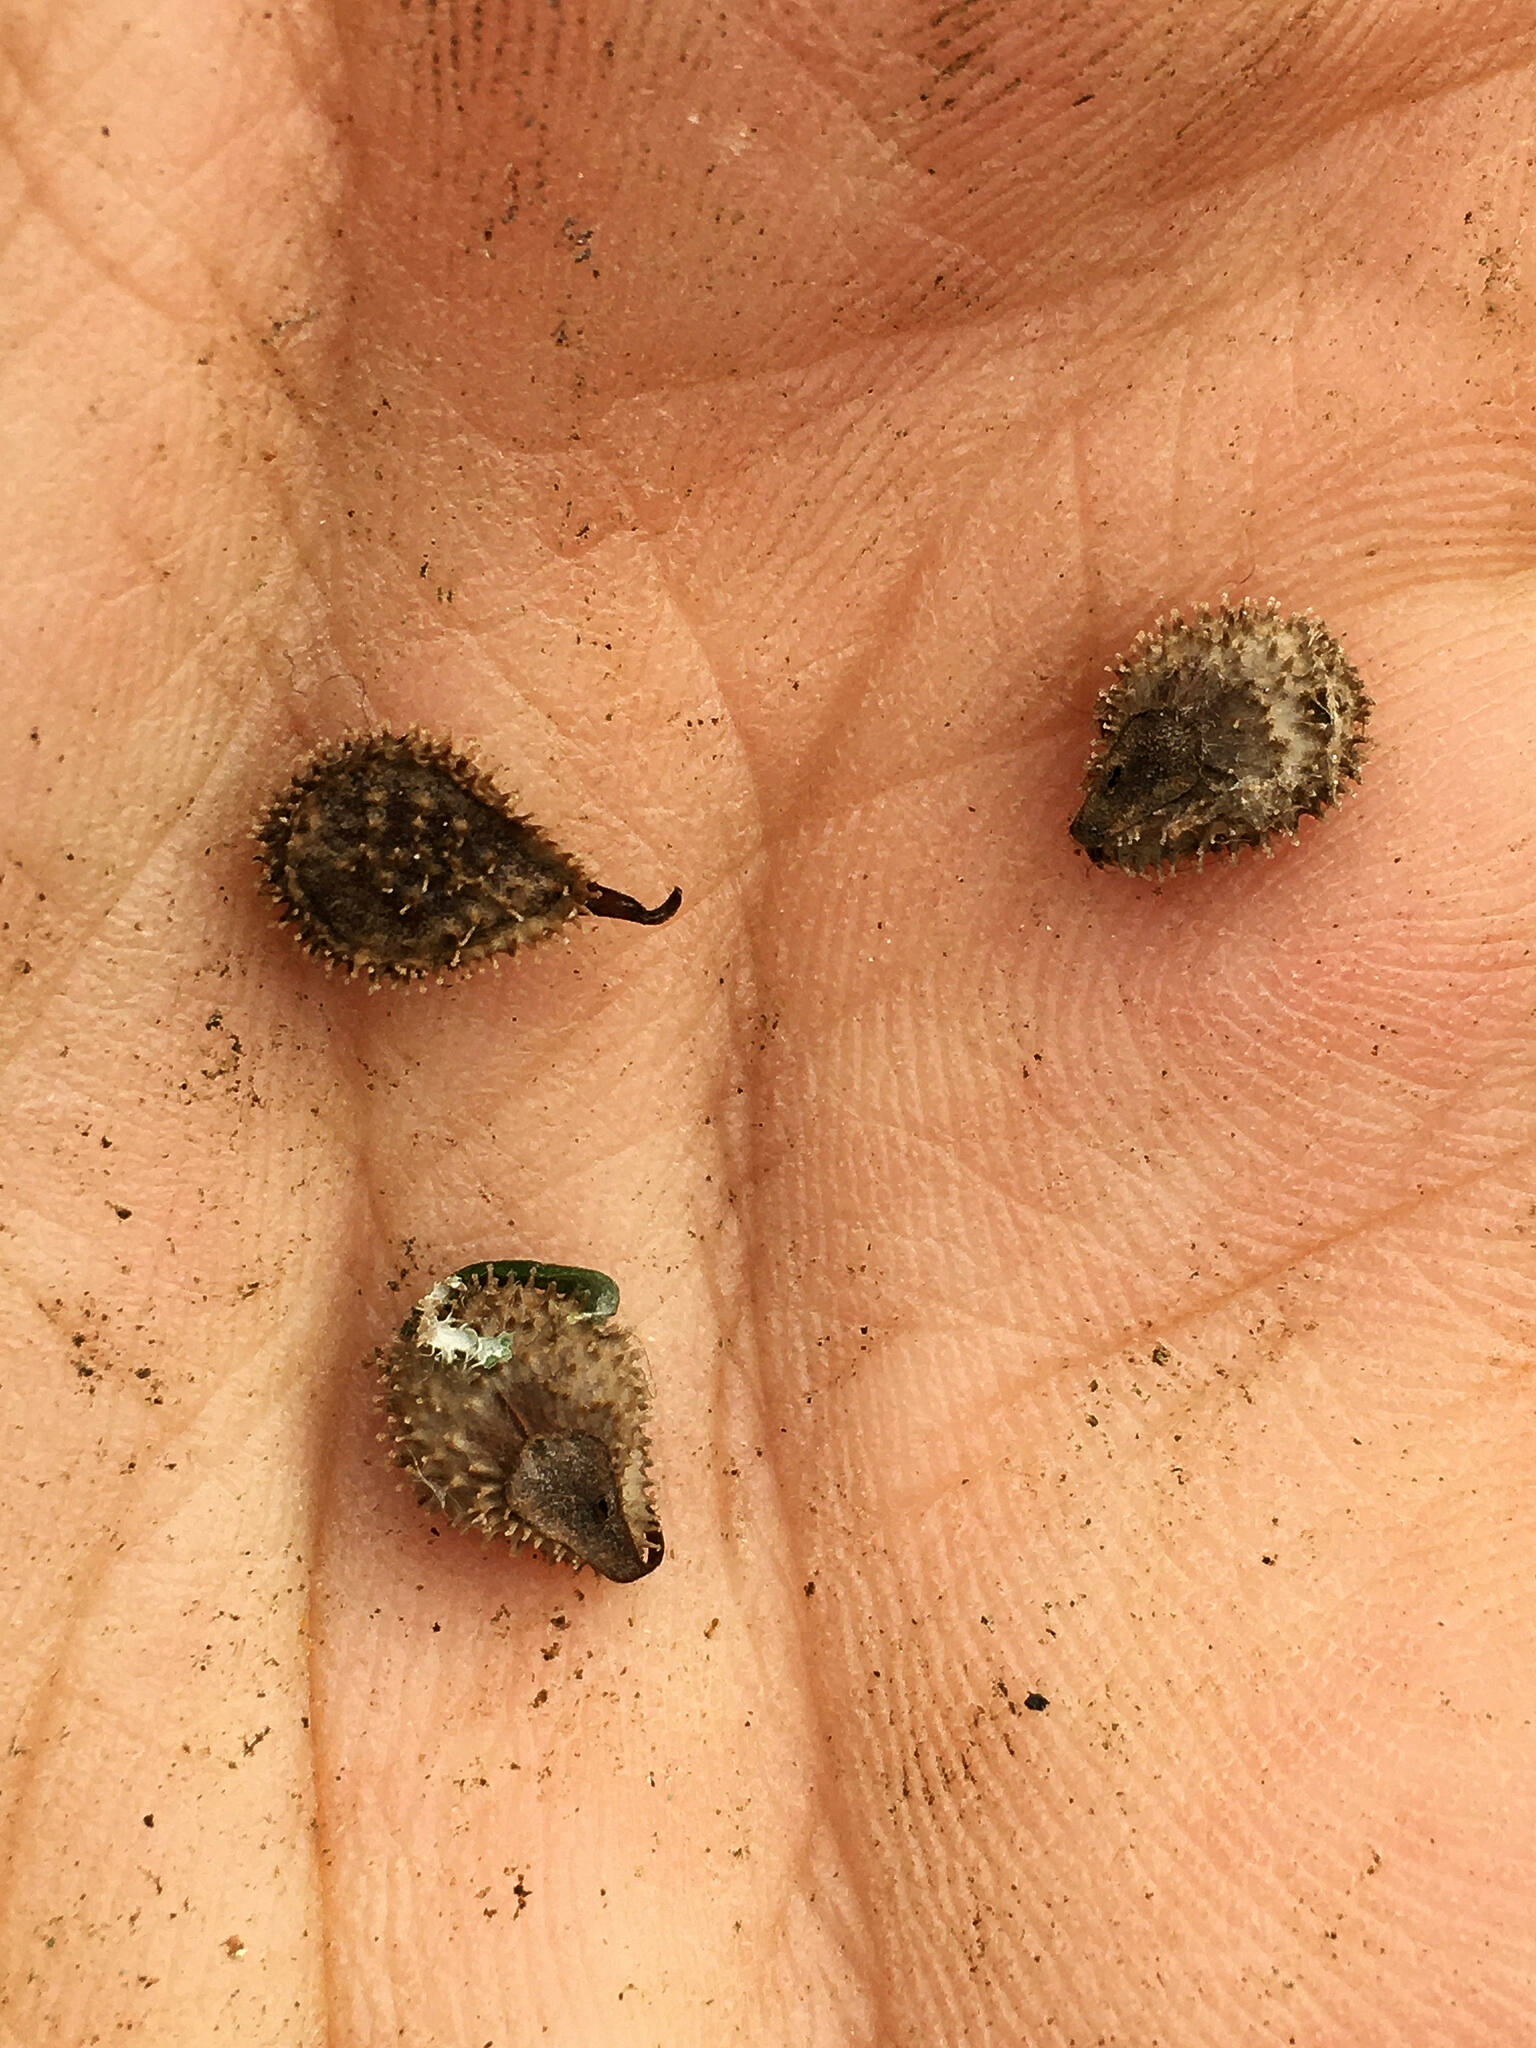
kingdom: Plantae
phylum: Tracheophyta
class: Magnoliopsida
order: Boraginales
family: Boraginaceae
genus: Cynoglossum
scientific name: Cynoglossum officinale
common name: Hound's-tongue
